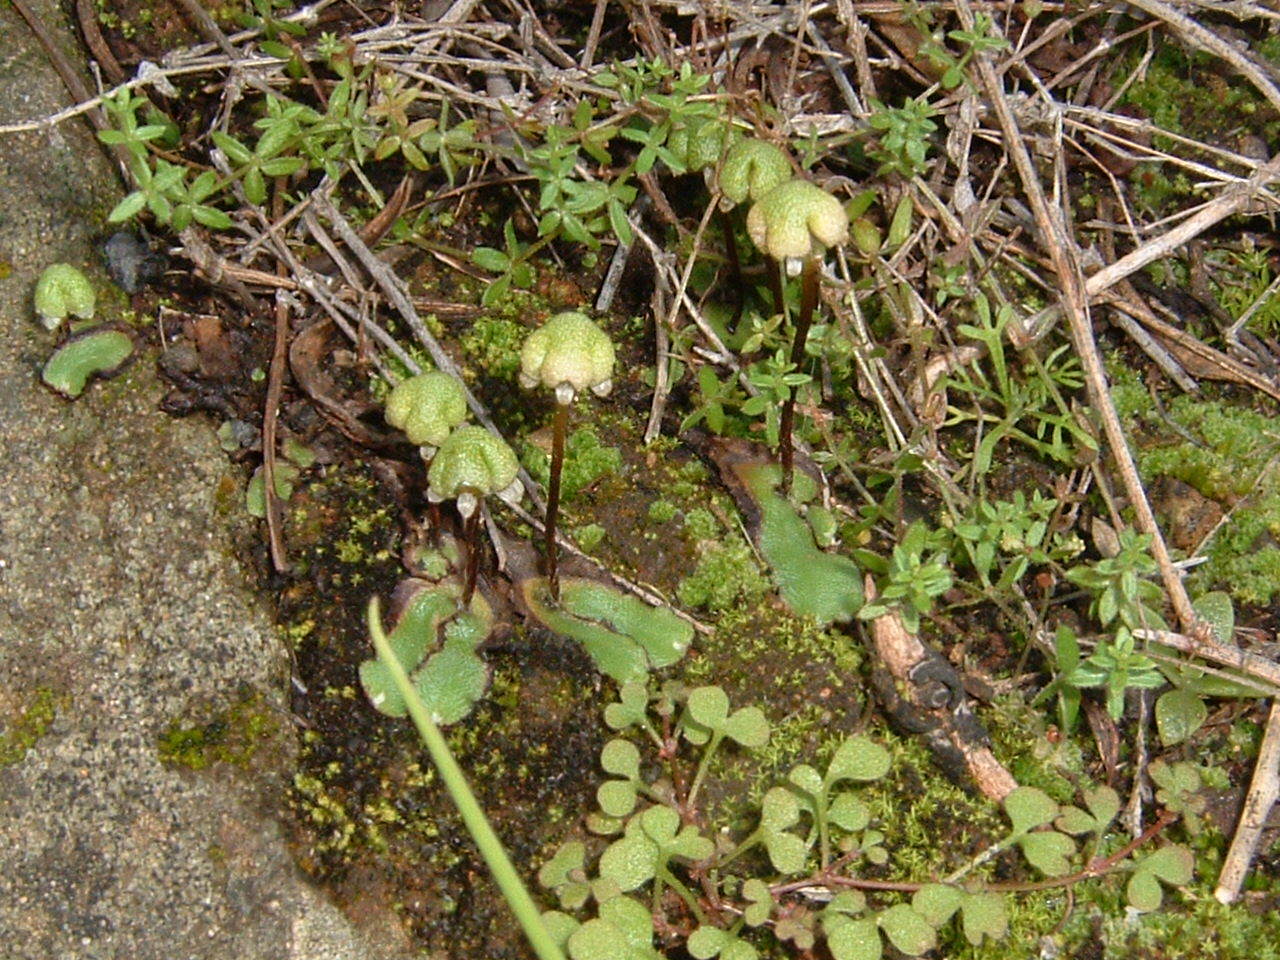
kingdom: Plantae
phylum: Marchantiophyta
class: Marchantiopsida
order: Marchantiales
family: Aytoniaceae
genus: Asterella
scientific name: Asterella californica
